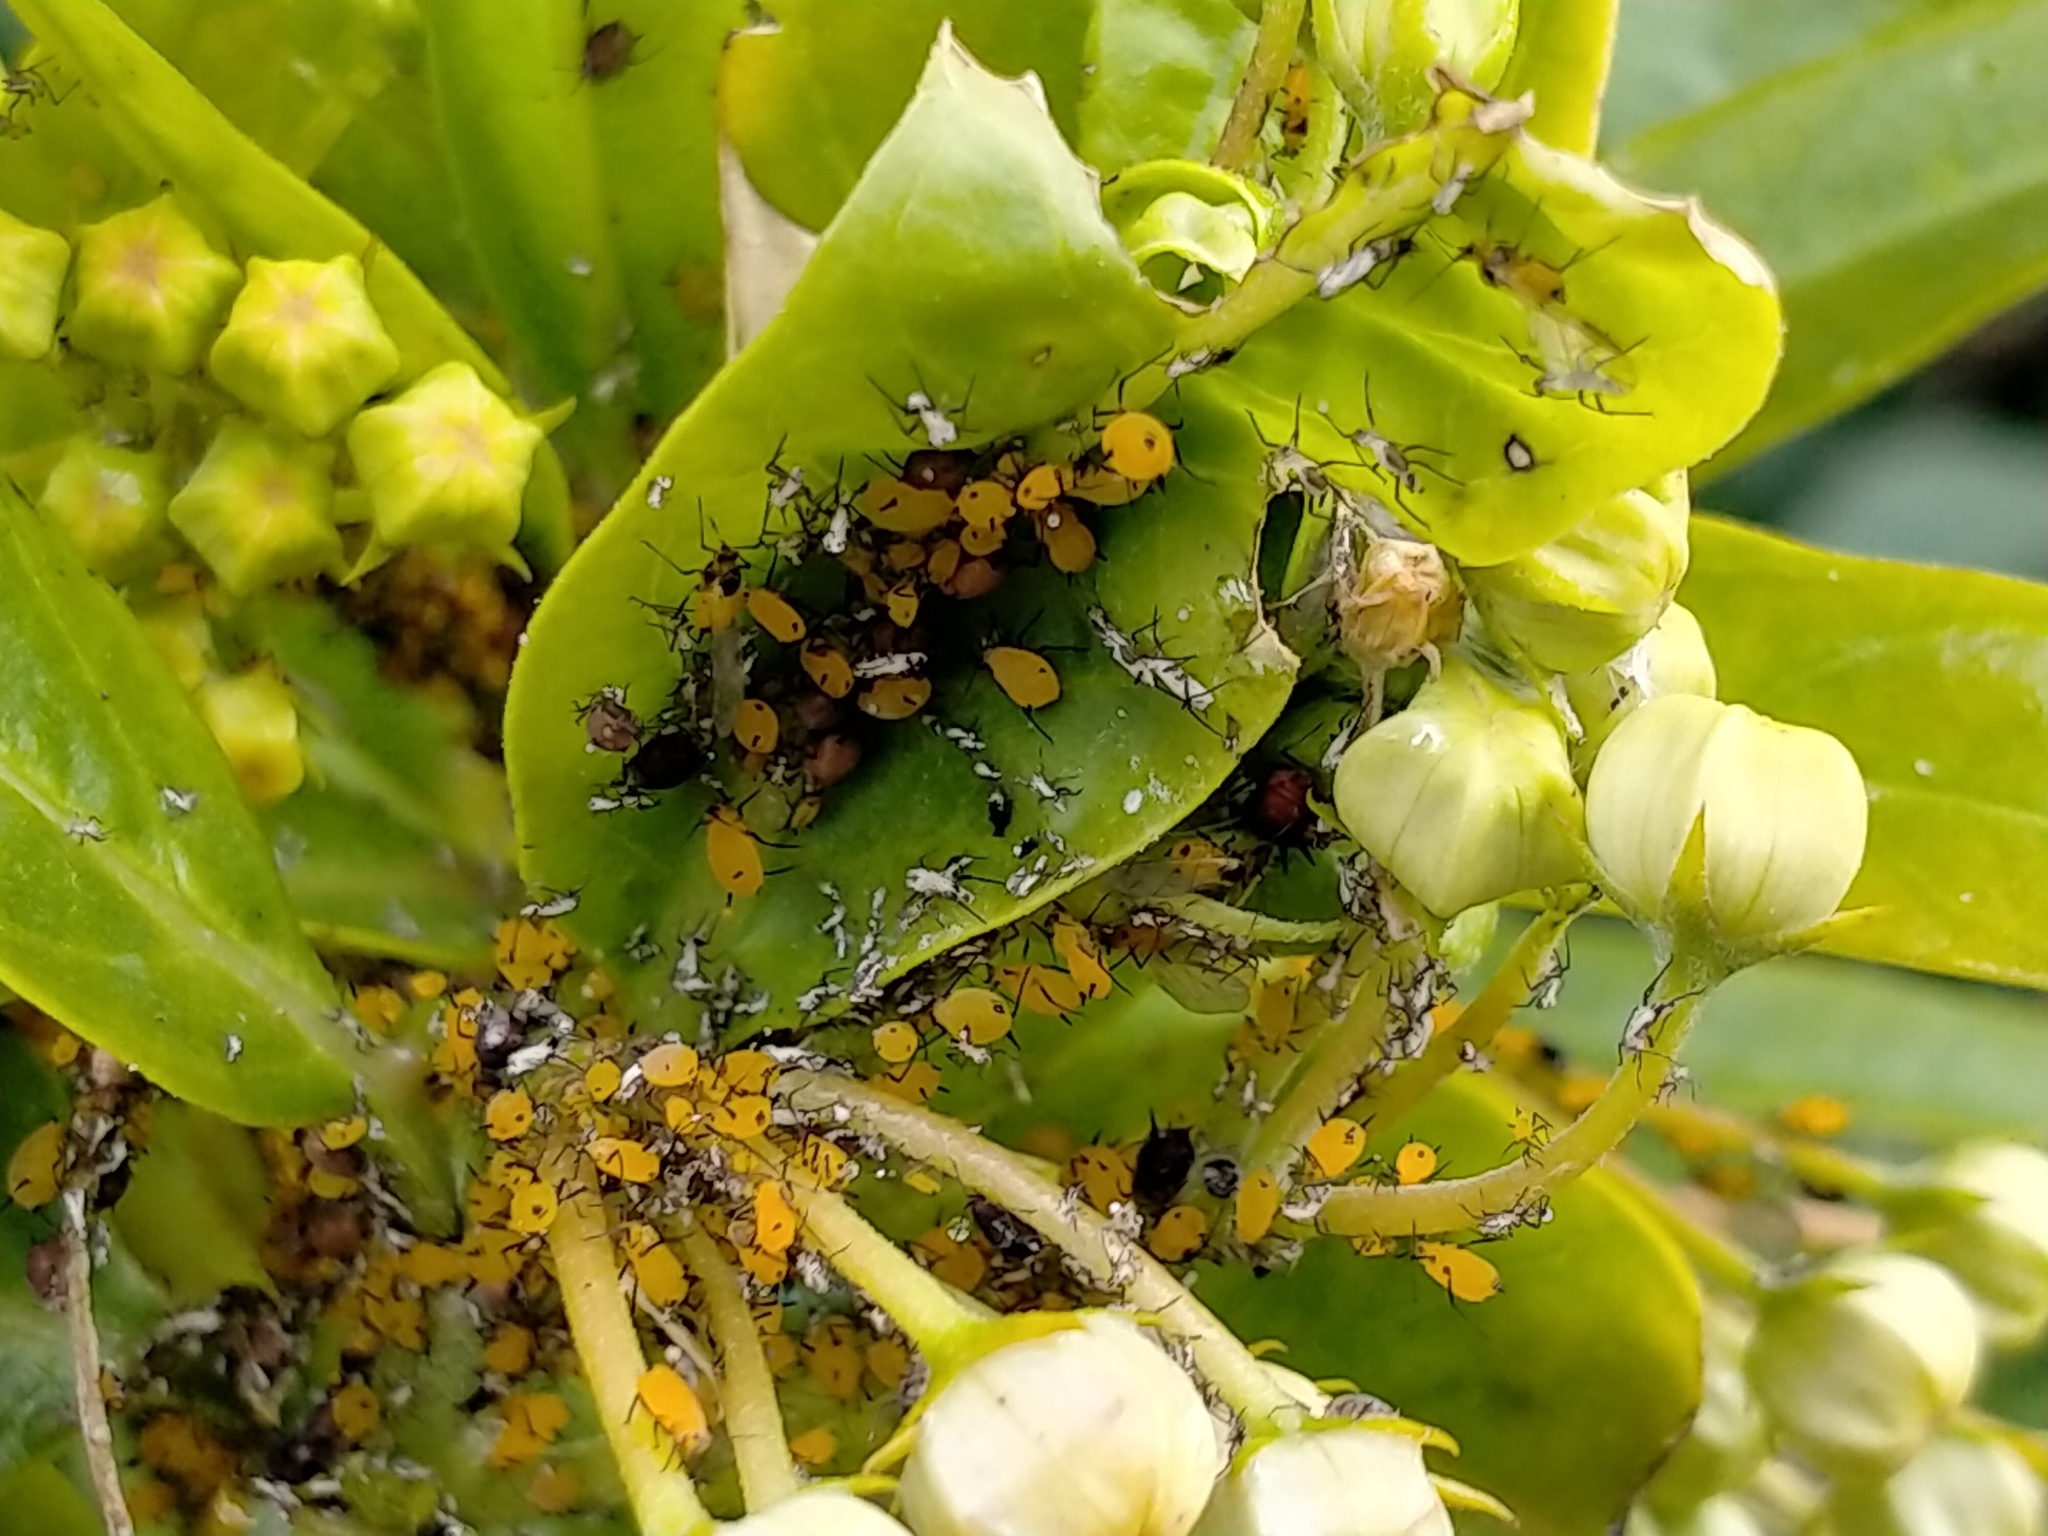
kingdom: Animalia
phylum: Arthropoda
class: Insecta
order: Hemiptera
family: Aphididae
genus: Aphis
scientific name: Aphis nerii
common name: Oleander aphid
